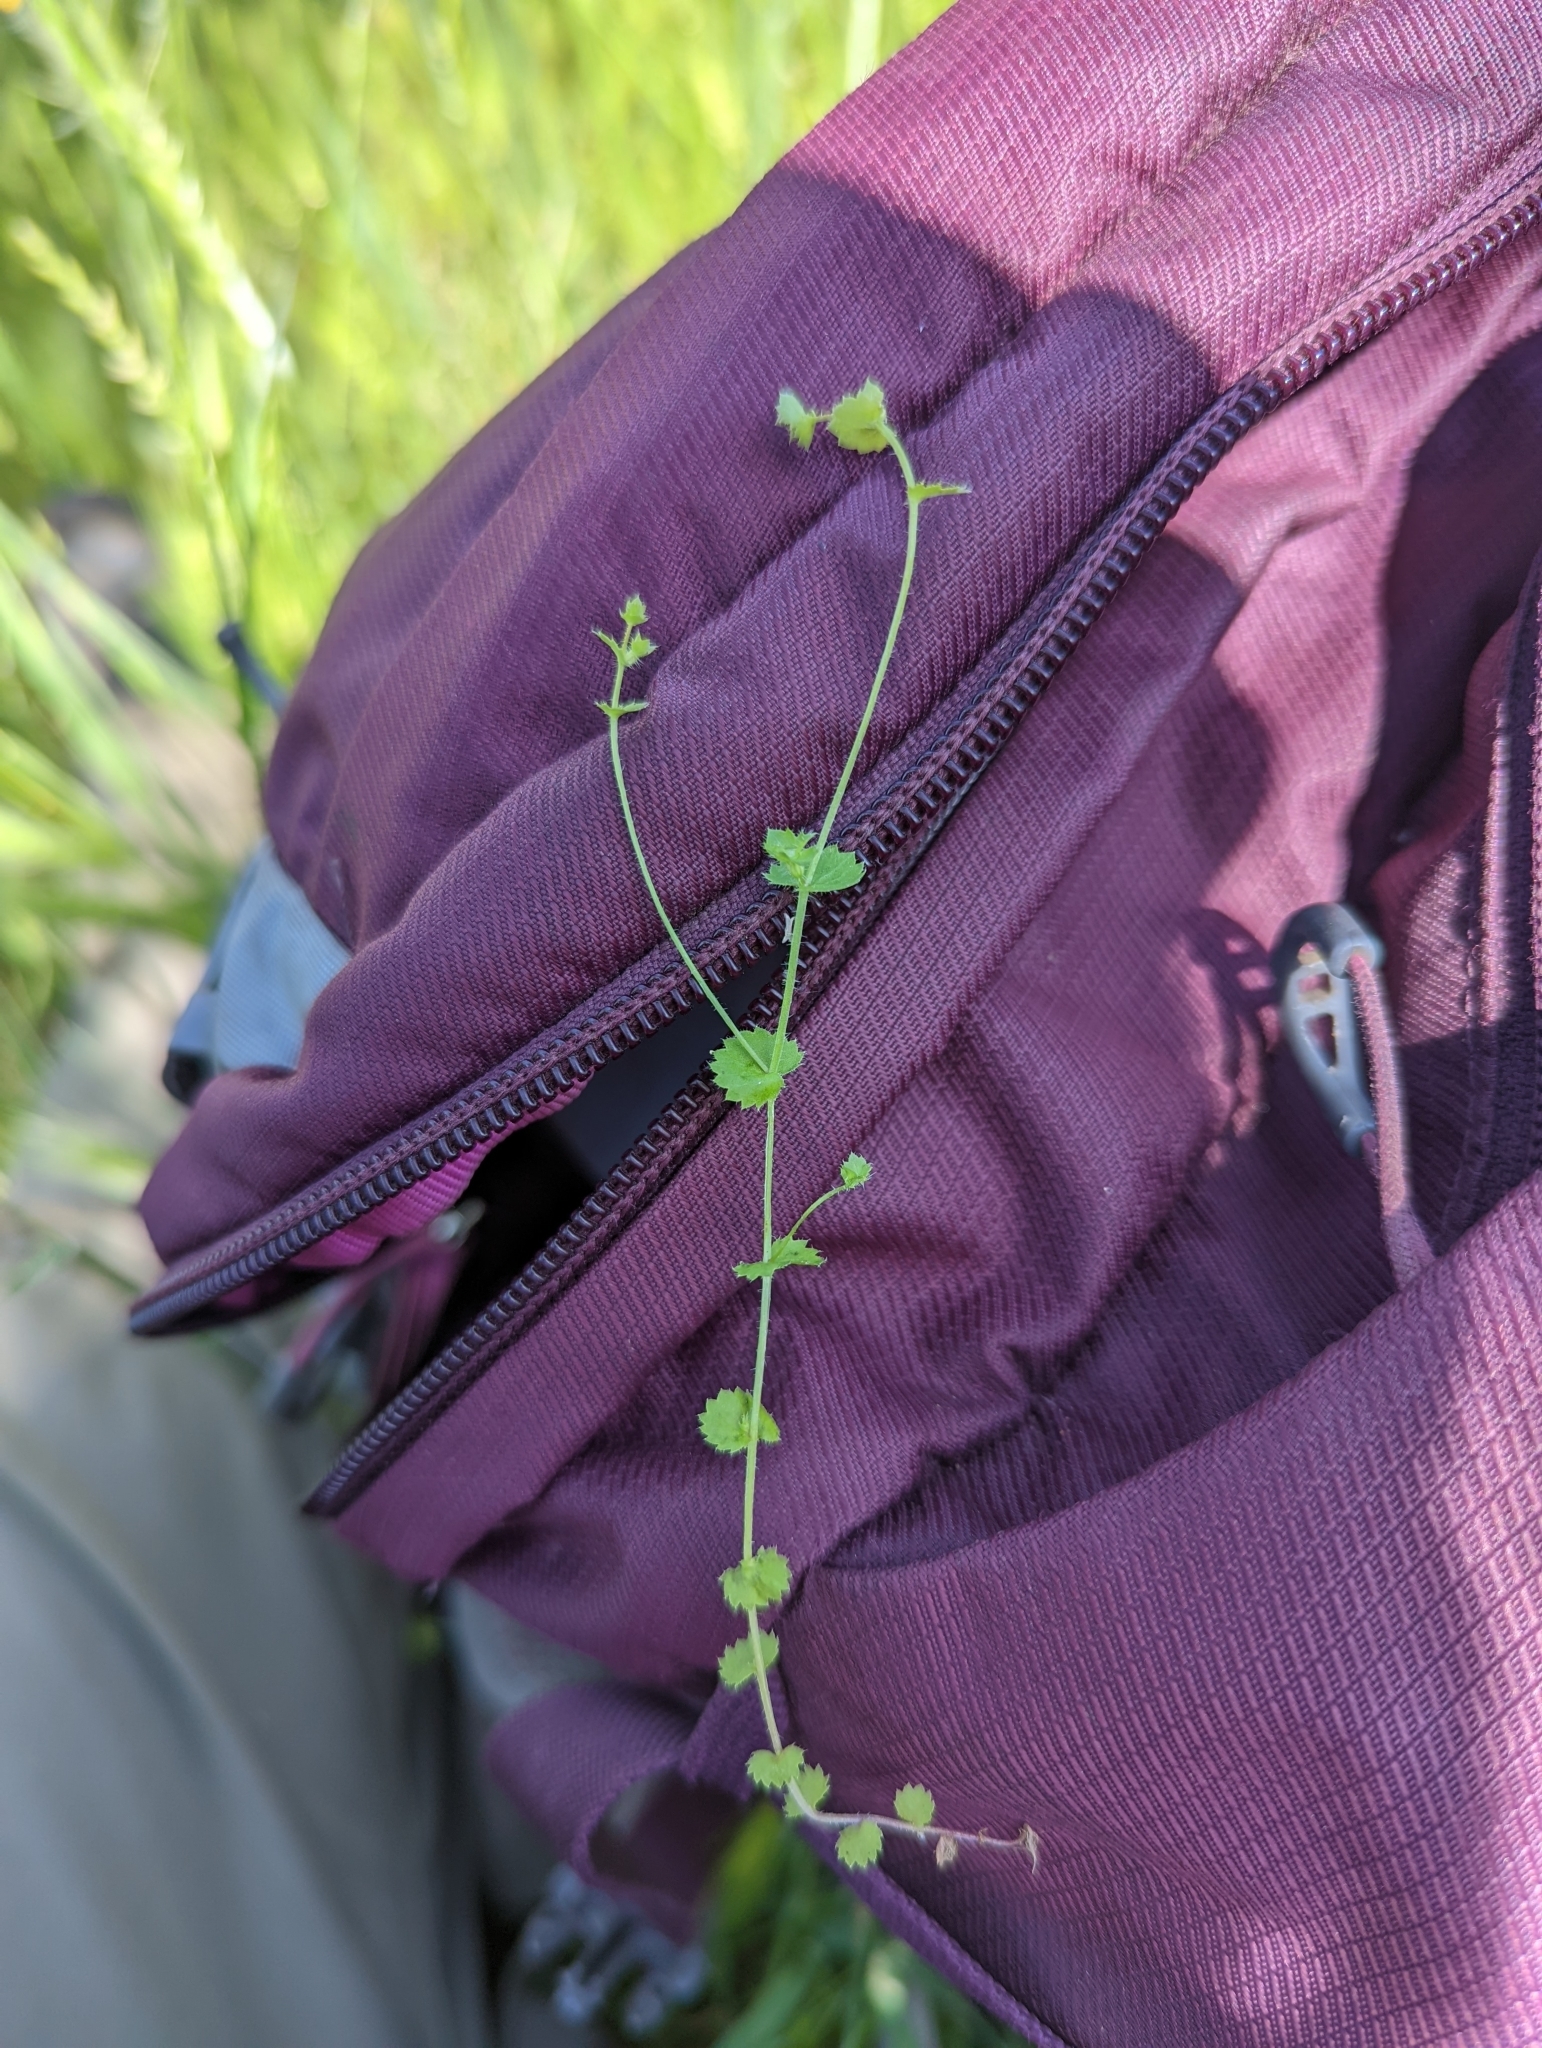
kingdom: Plantae
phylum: Tracheophyta
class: Magnoliopsida
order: Asterales
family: Campanulaceae
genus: Heterocodon
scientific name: Heterocodon rariflorum
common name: Rareflower heterocodon
